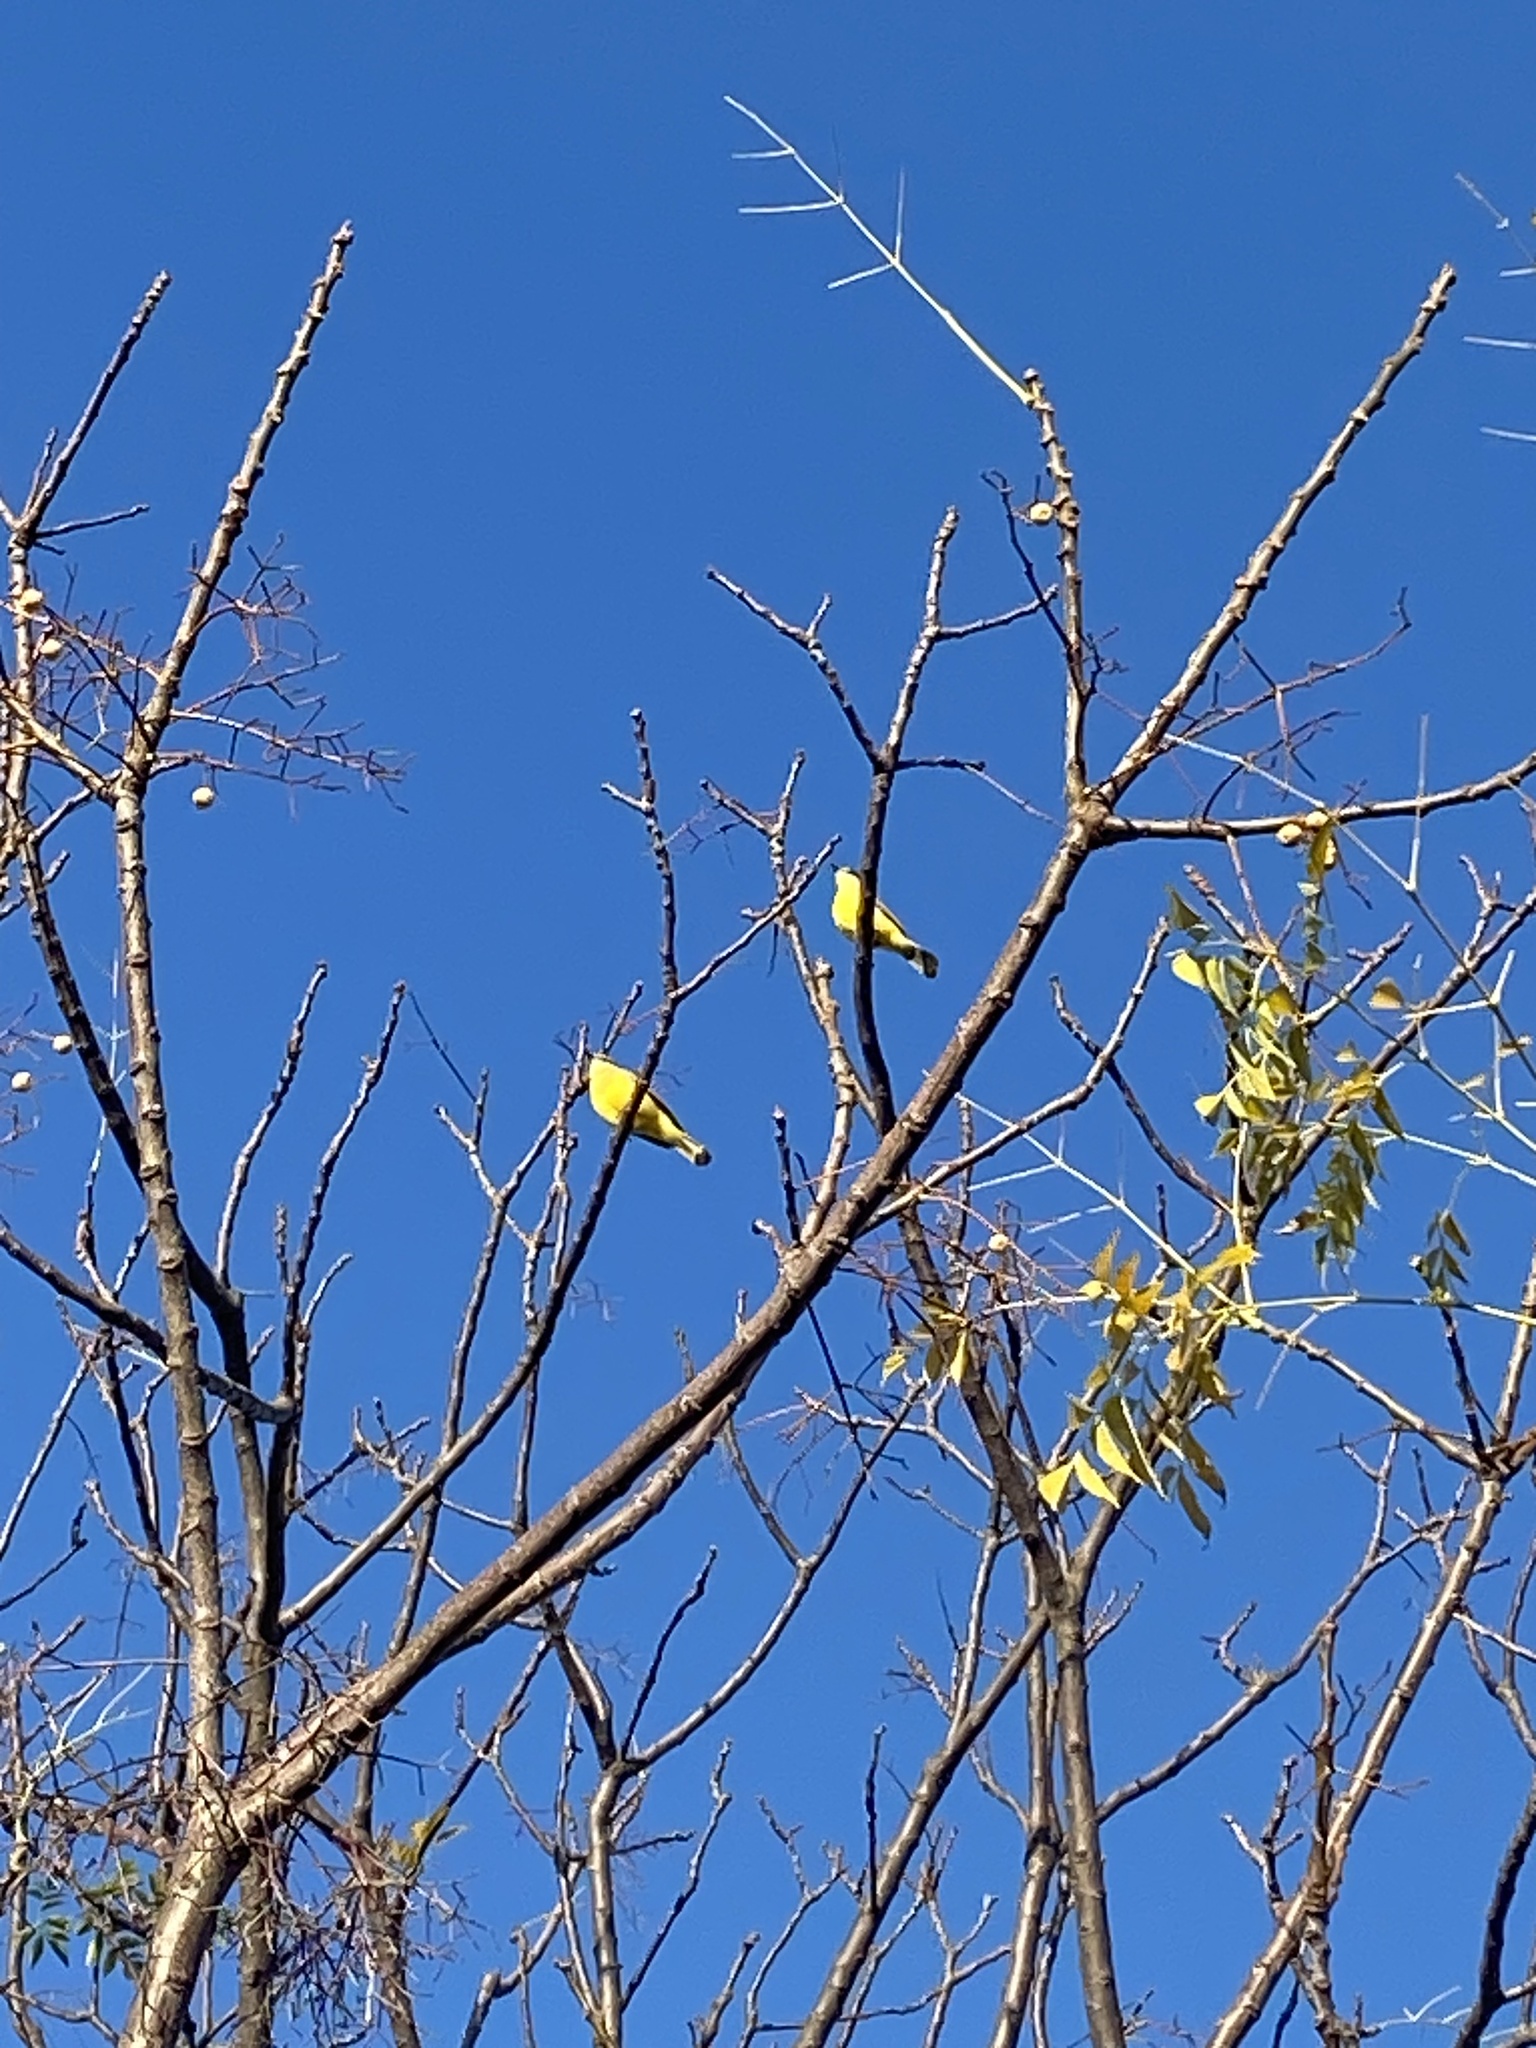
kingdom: Animalia
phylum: Chordata
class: Aves
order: Passeriformes
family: Fringillidae
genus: Spinus
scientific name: Spinus magellanicus
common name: Hooded siskin
